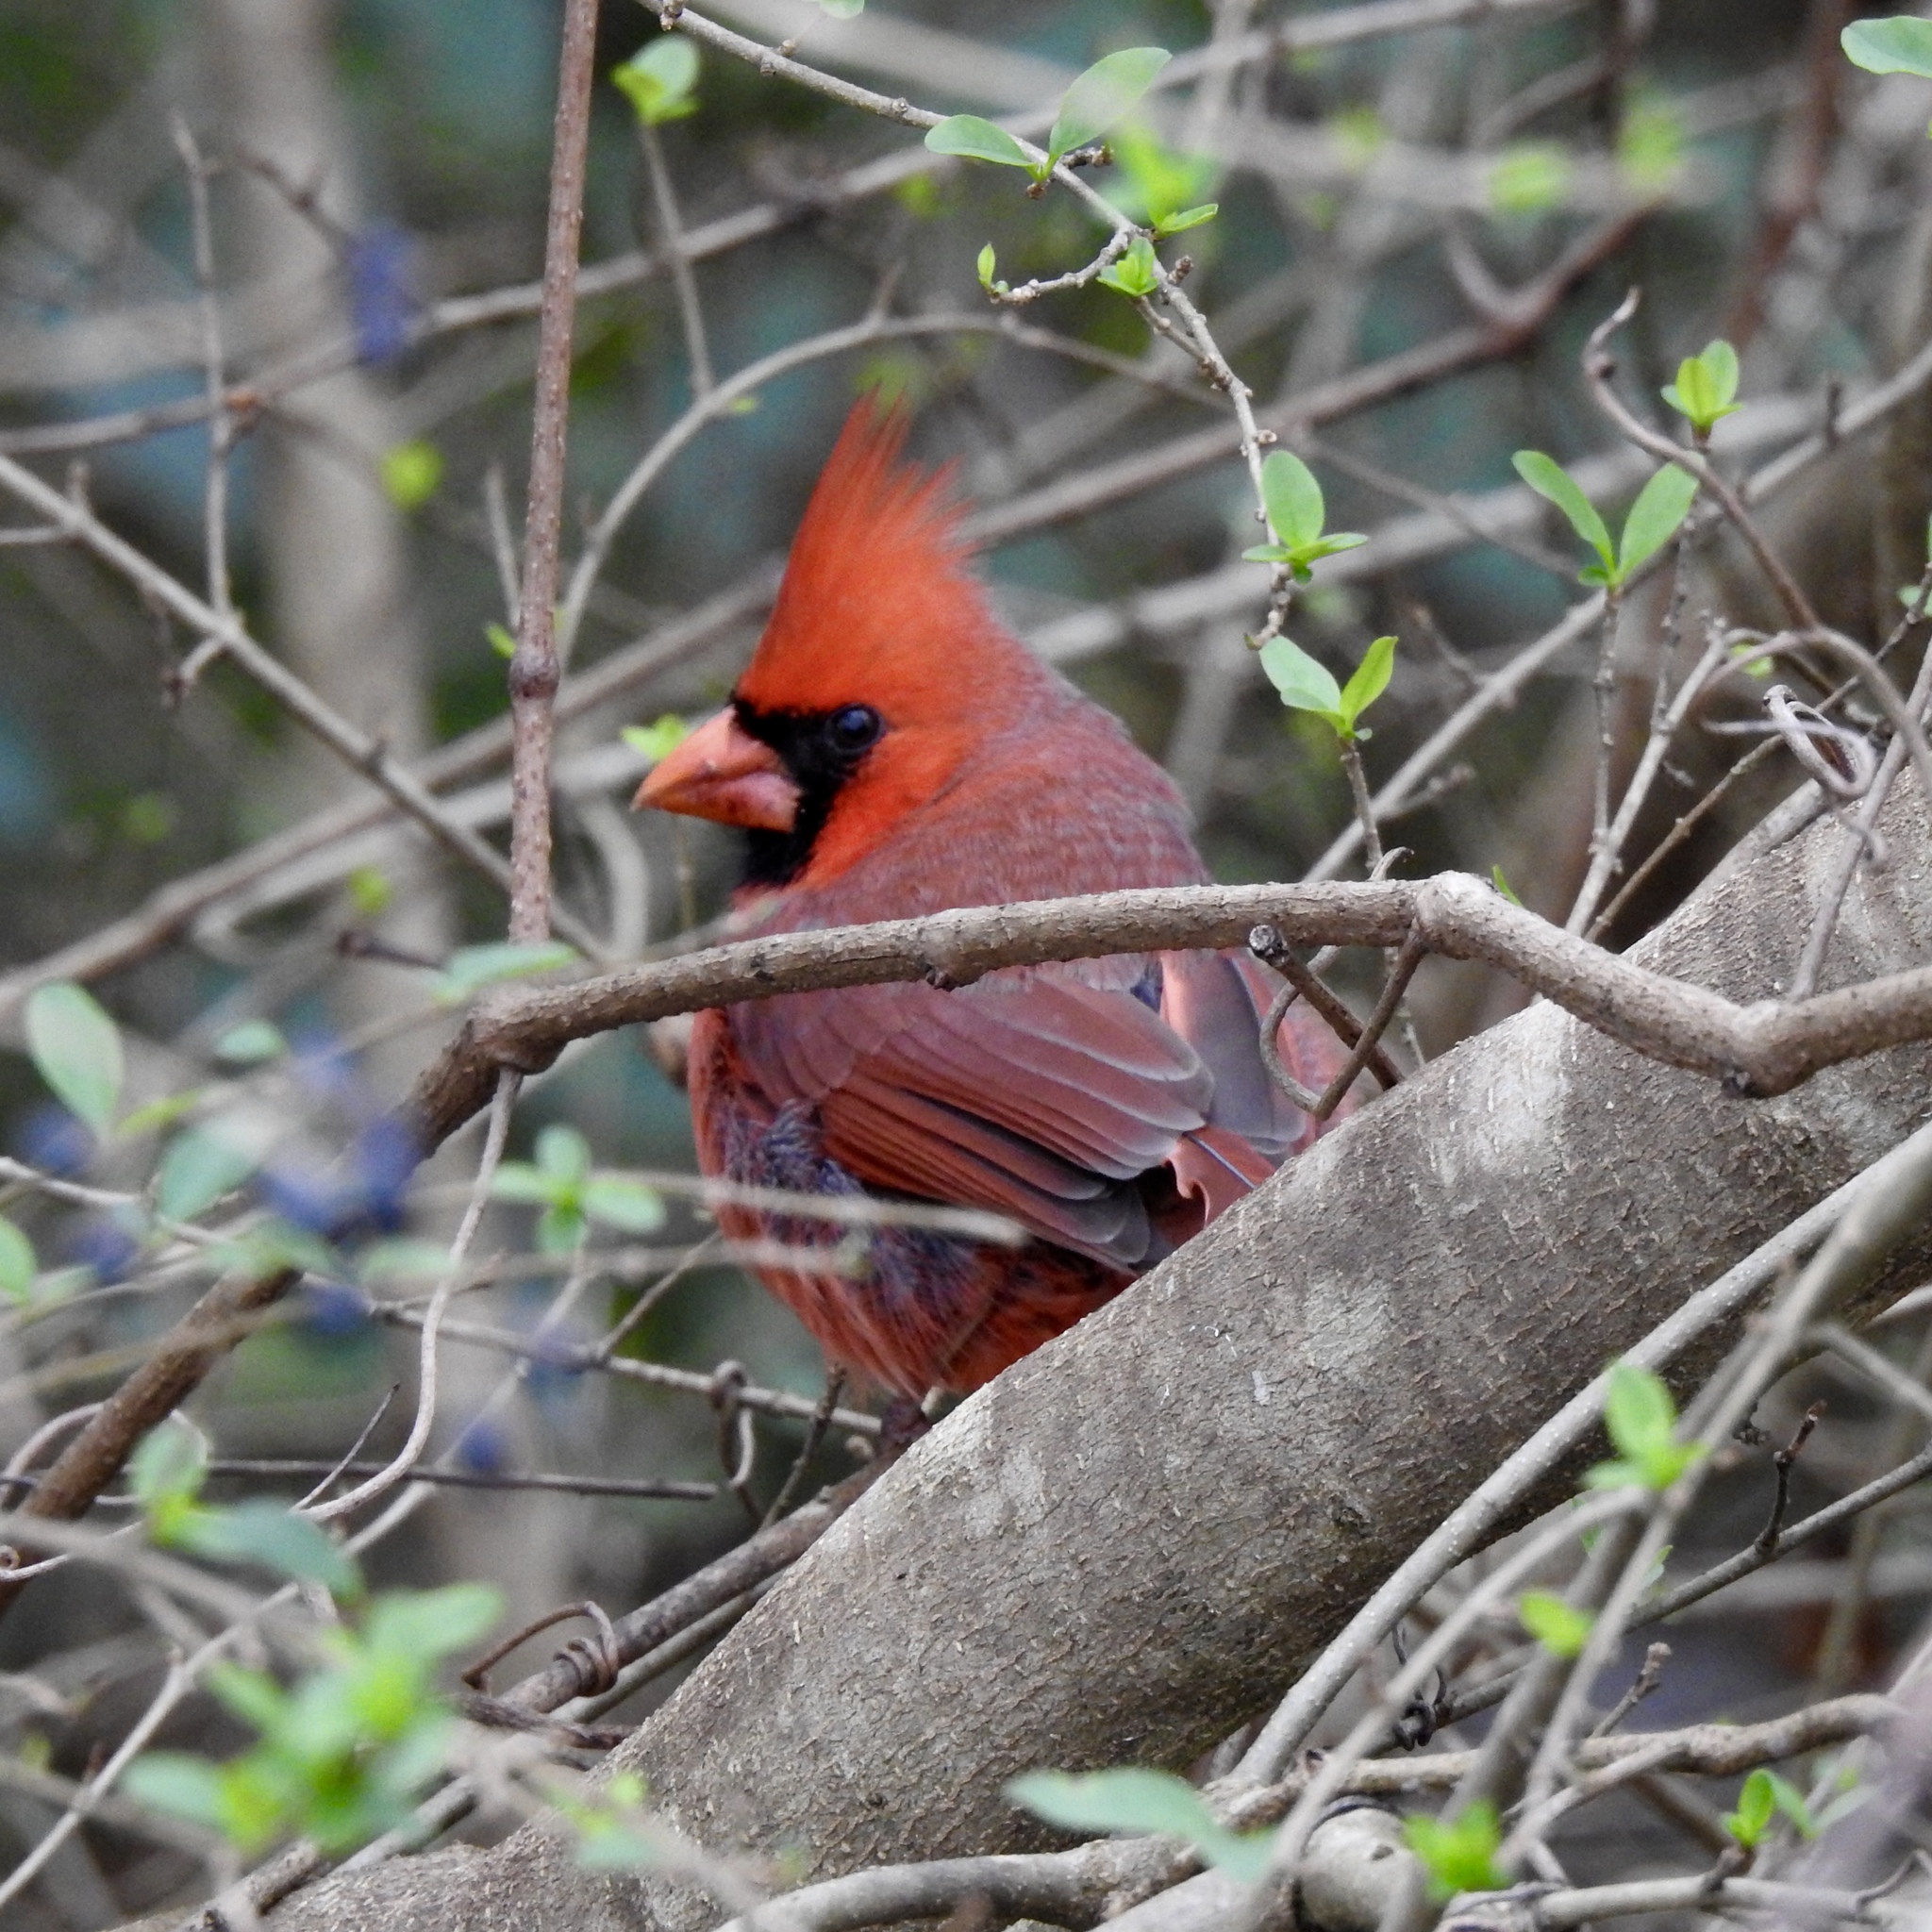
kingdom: Animalia
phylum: Chordata
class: Aves
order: Passeriformes
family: Cardinalidae
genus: Cardinalis
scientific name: Cardinalis cardinalis
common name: Northern cardinal
